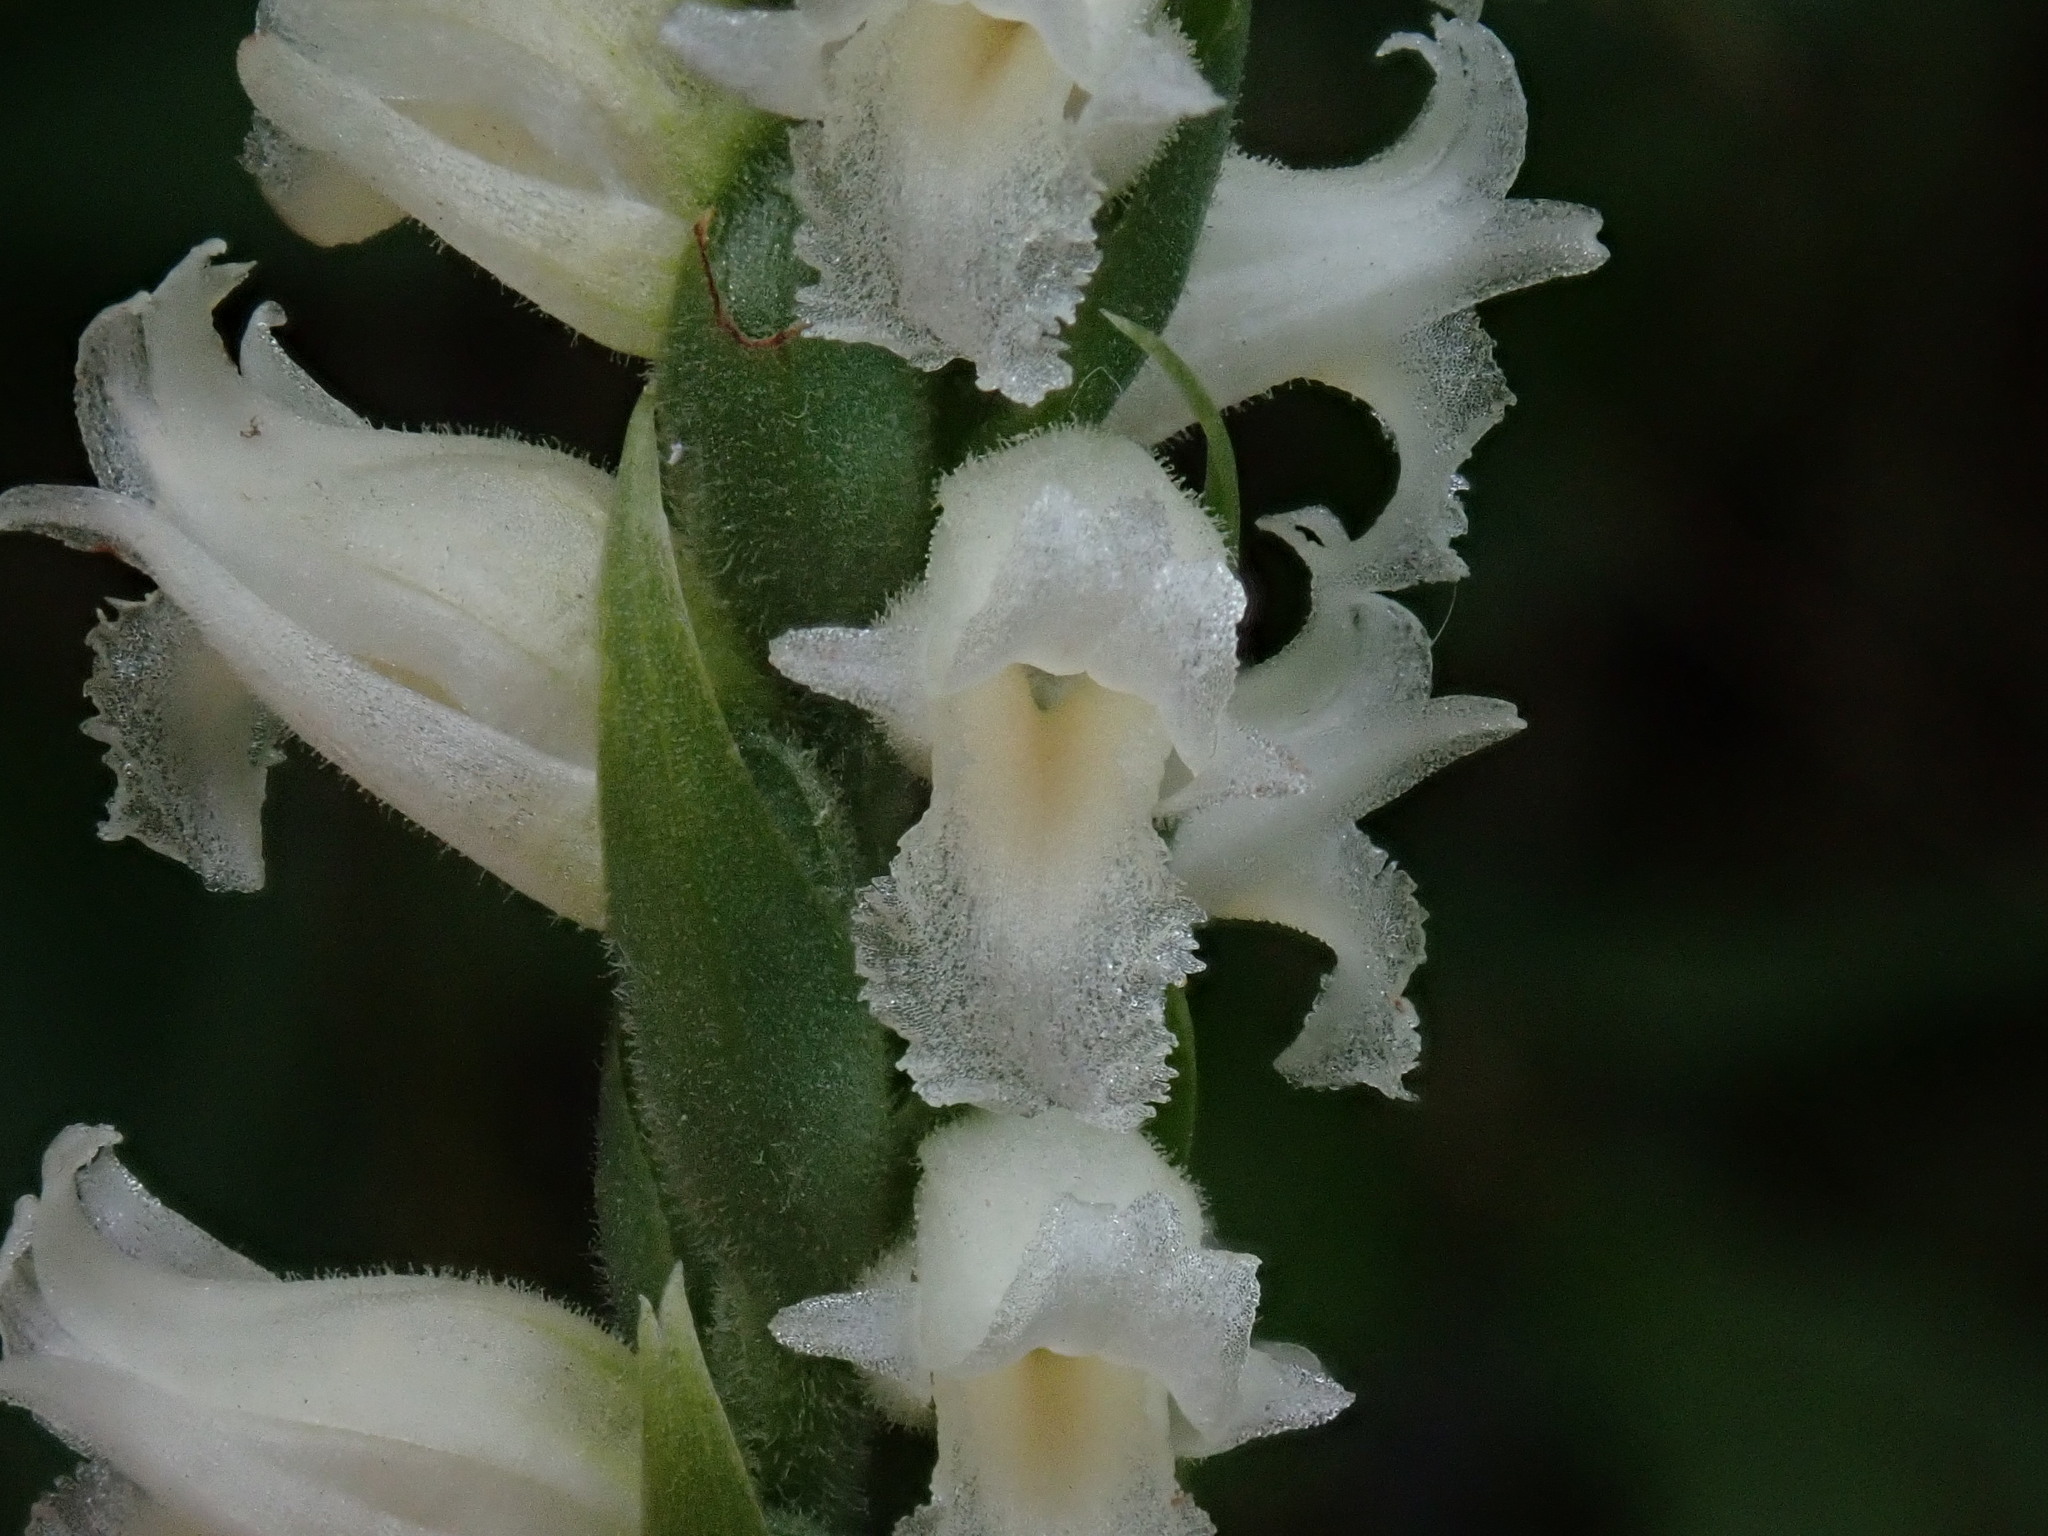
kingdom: Plantae
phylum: Tracheophyta
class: Liliopsida
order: Asparagales
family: Orchidaceae
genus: Spiranthes
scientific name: Spiranthes ochroleuca
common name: Yellow ladies'-tresses
